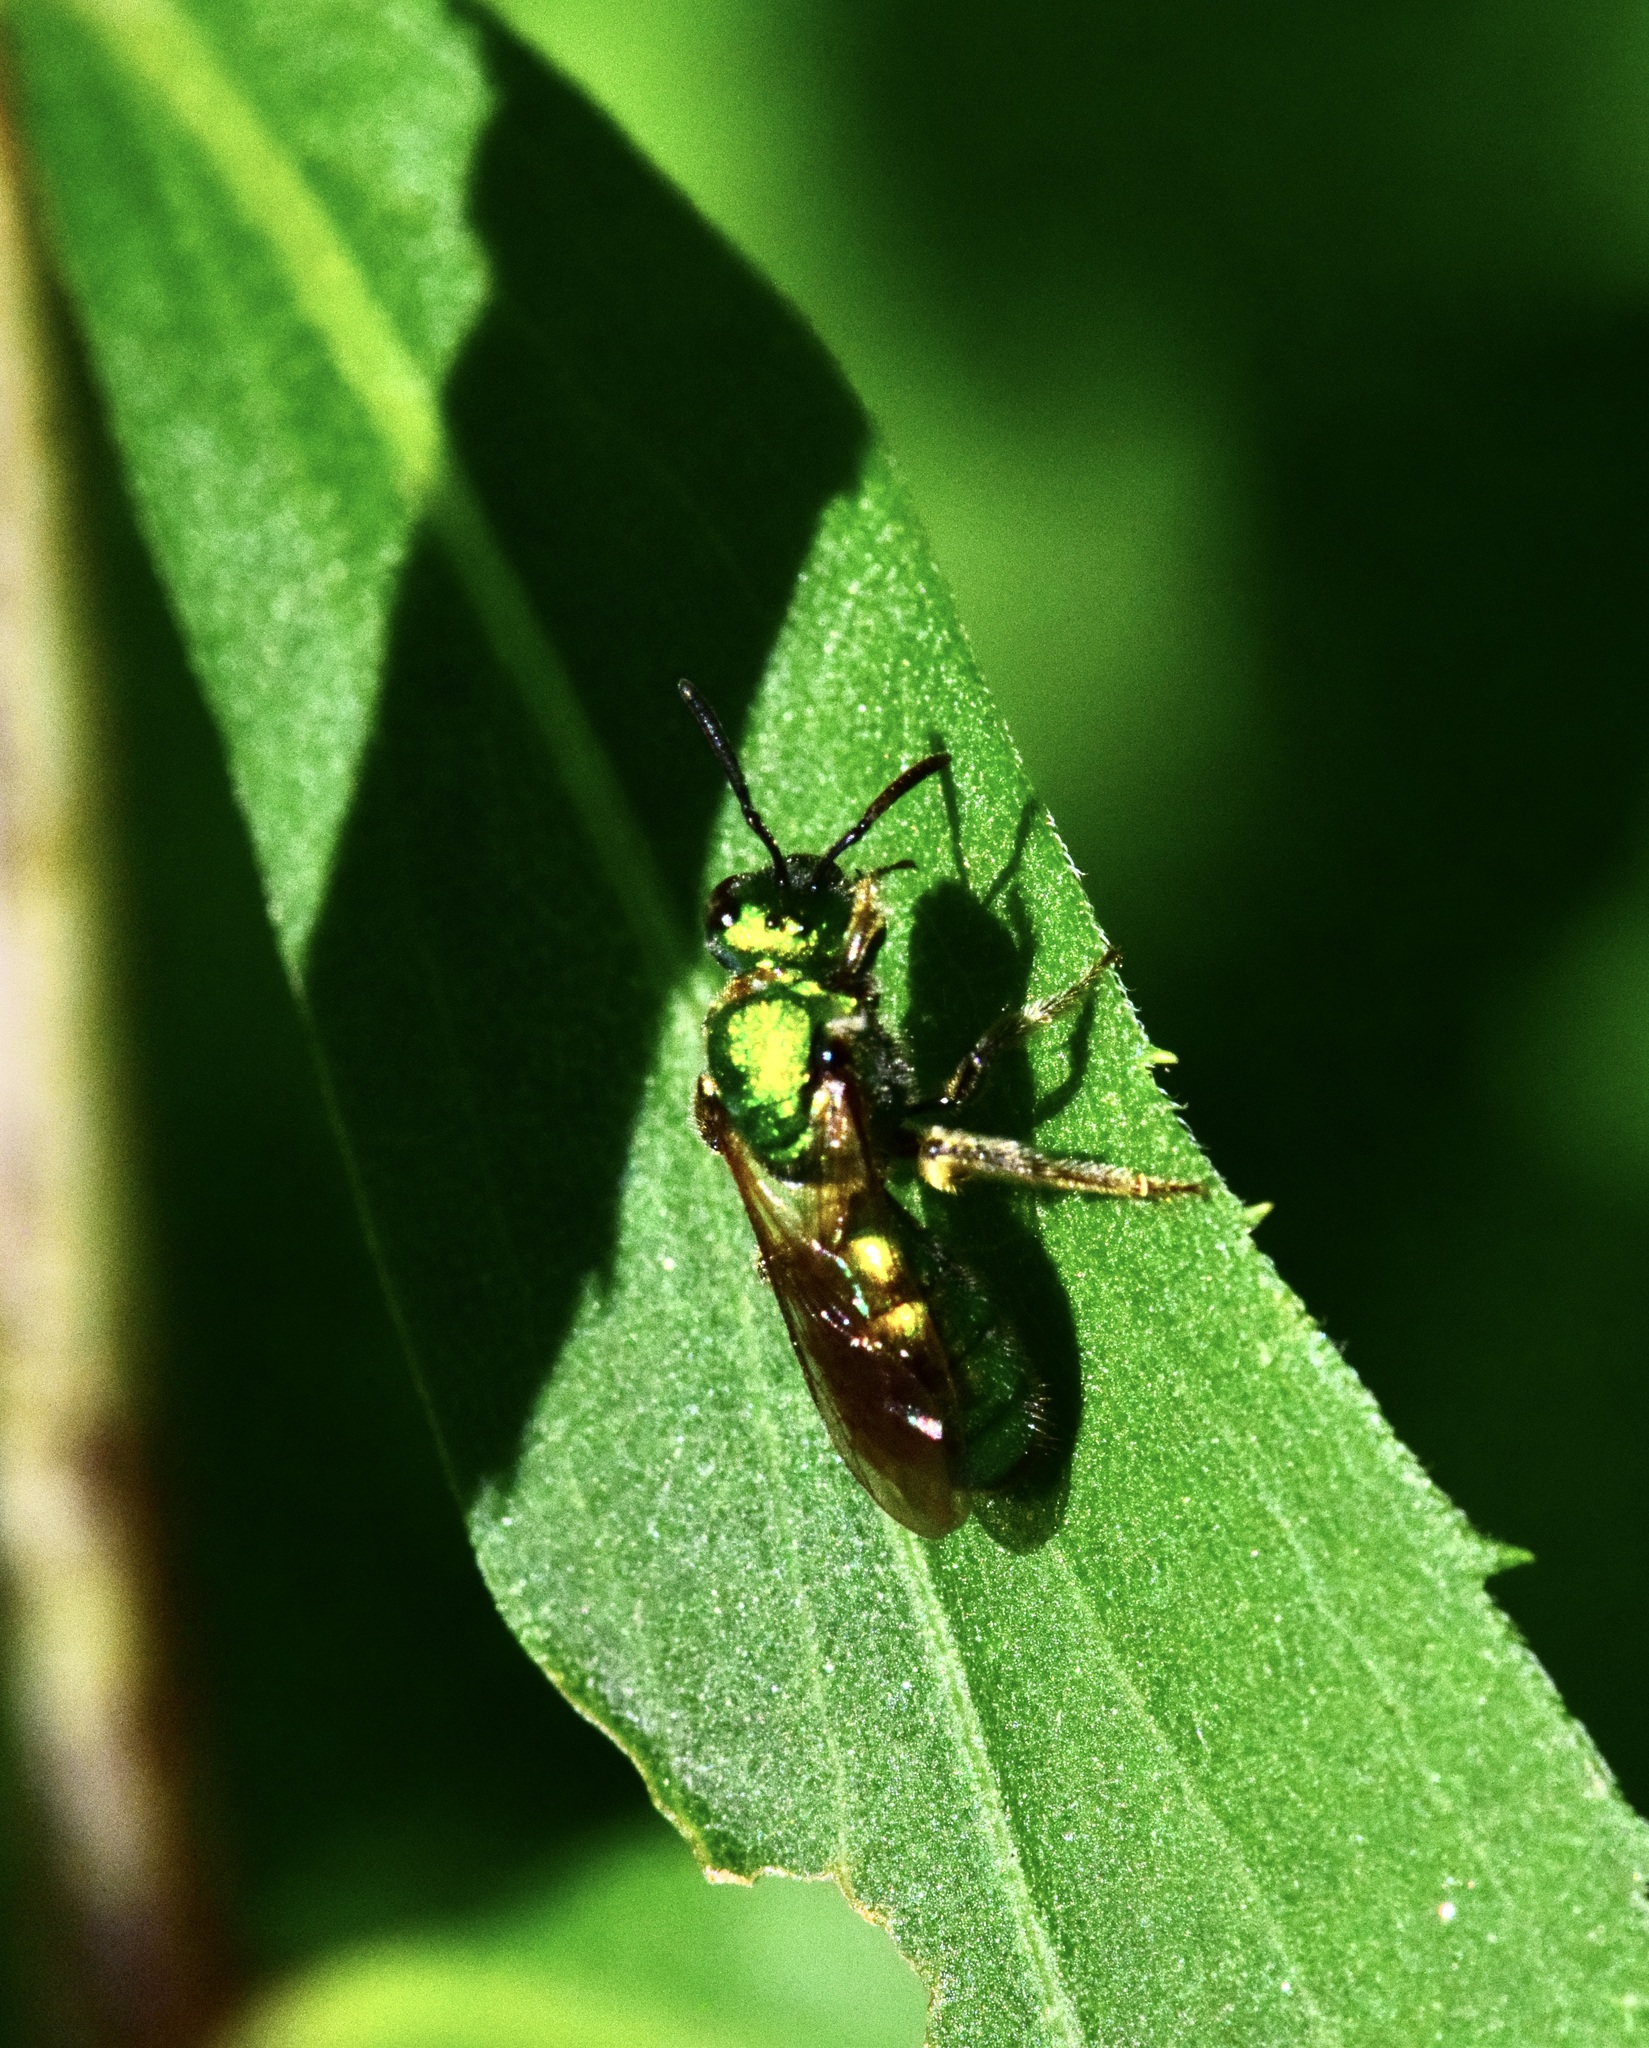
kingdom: Animalia
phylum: Arthropoda
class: Insecta
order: Hymenoptera
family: Halictidae
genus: Augochlora
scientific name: Augochlora pura
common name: Pure green sweat bee
